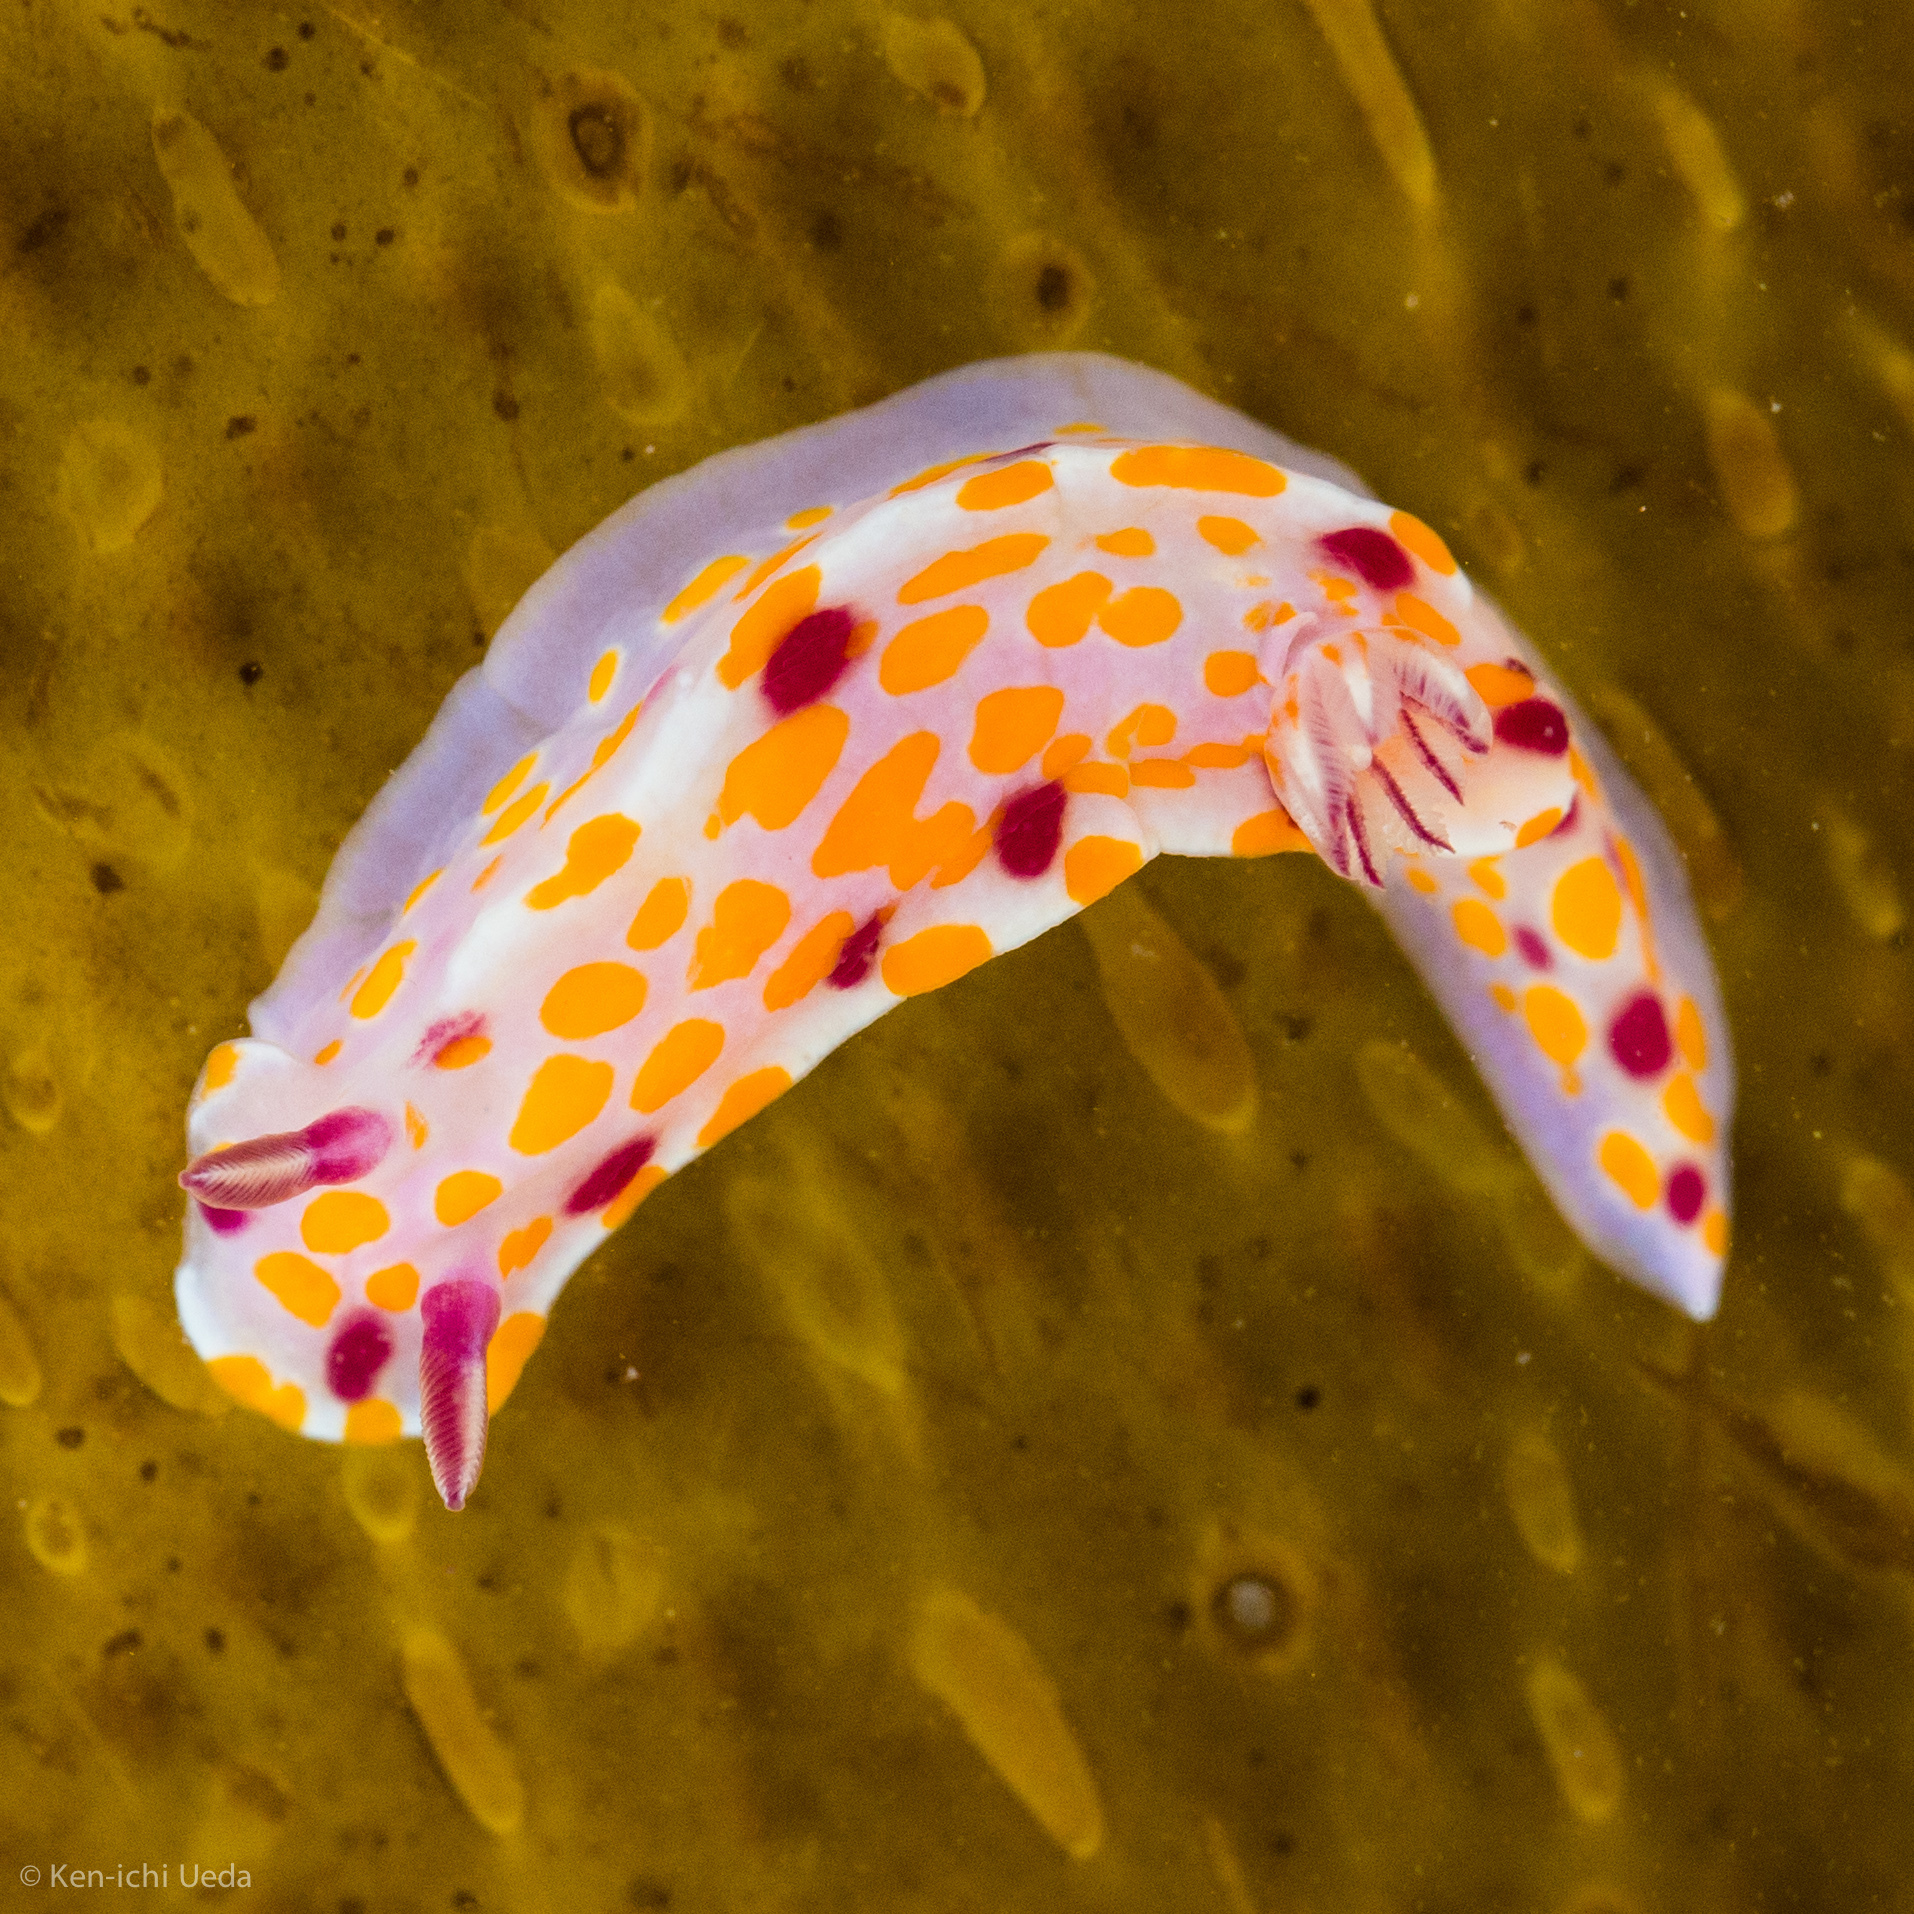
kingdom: Animalia
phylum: Mollusca
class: Gastropoda
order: Nudibranchia
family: Chromodorididae
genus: Ceratosoma
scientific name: Ceratosoma amoenum
